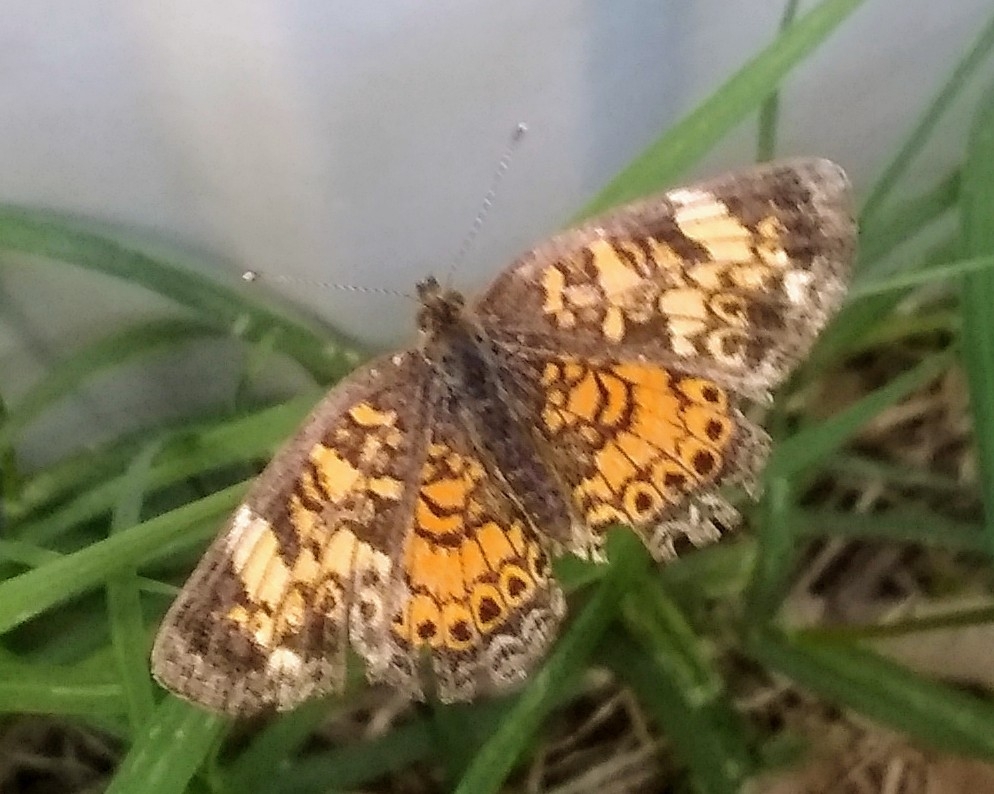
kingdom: Animalia
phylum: Arthropoda
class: Insecta
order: Lepidoptera
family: Nymphalidae
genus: Phyciodes
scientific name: Phyciodes tharos
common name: Pearl crescent
